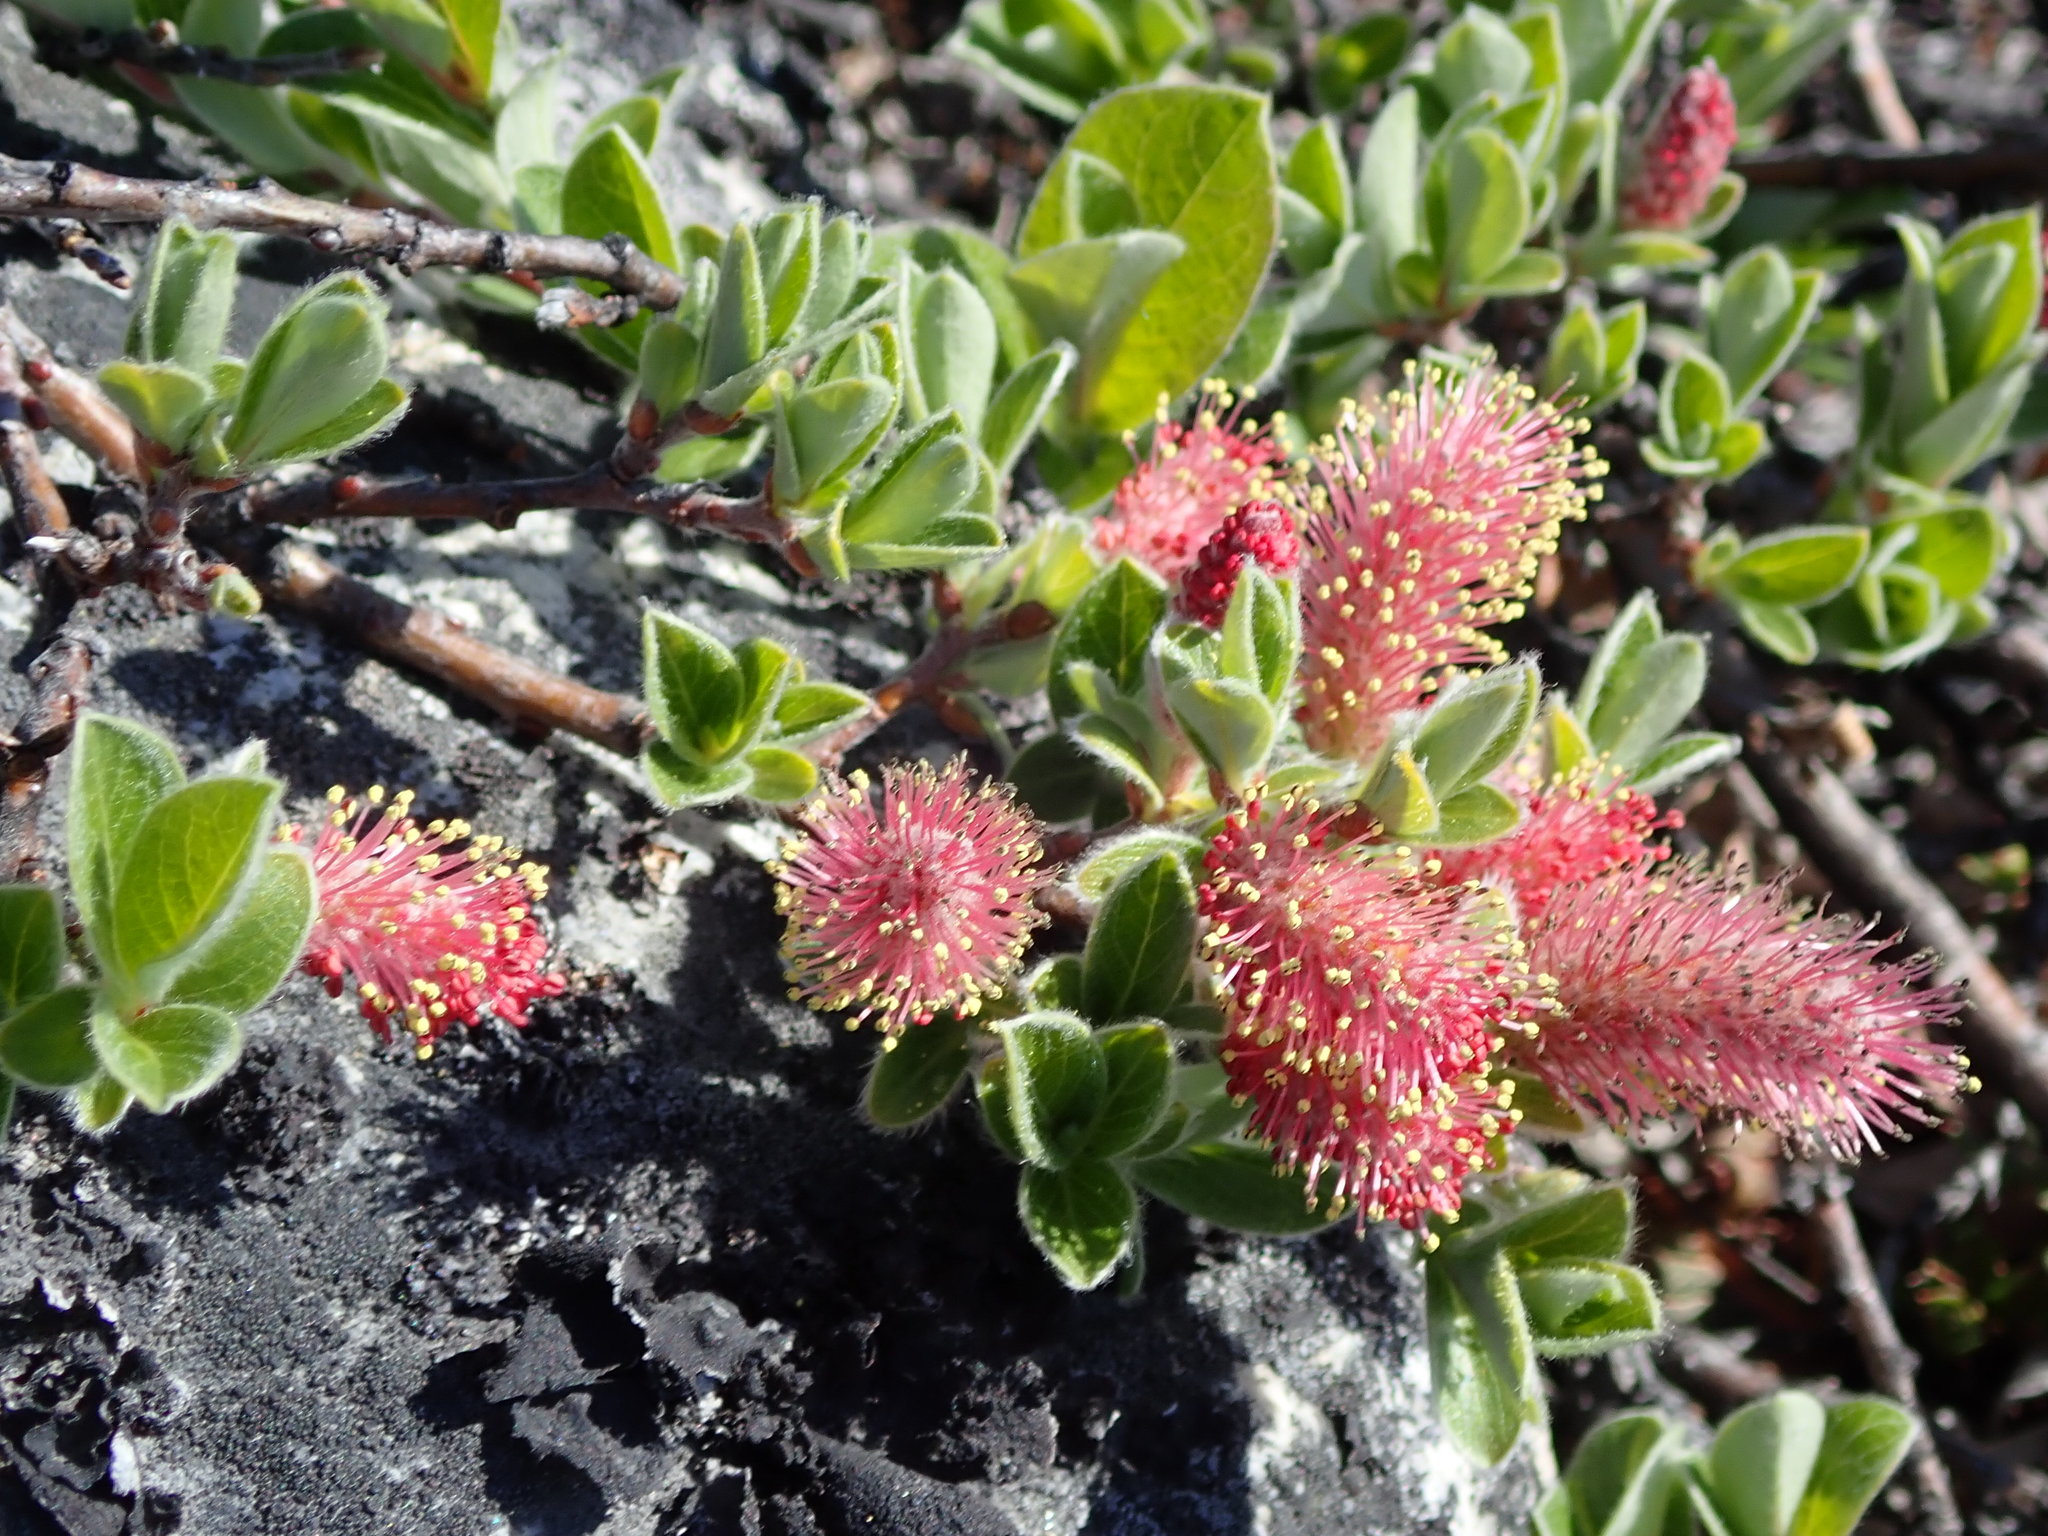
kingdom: Plantae
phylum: Tracheophyta
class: Magnoliopsida
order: Malpighiales
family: Salicaceae
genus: Salix
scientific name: Salix arctica
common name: Arctic willow
